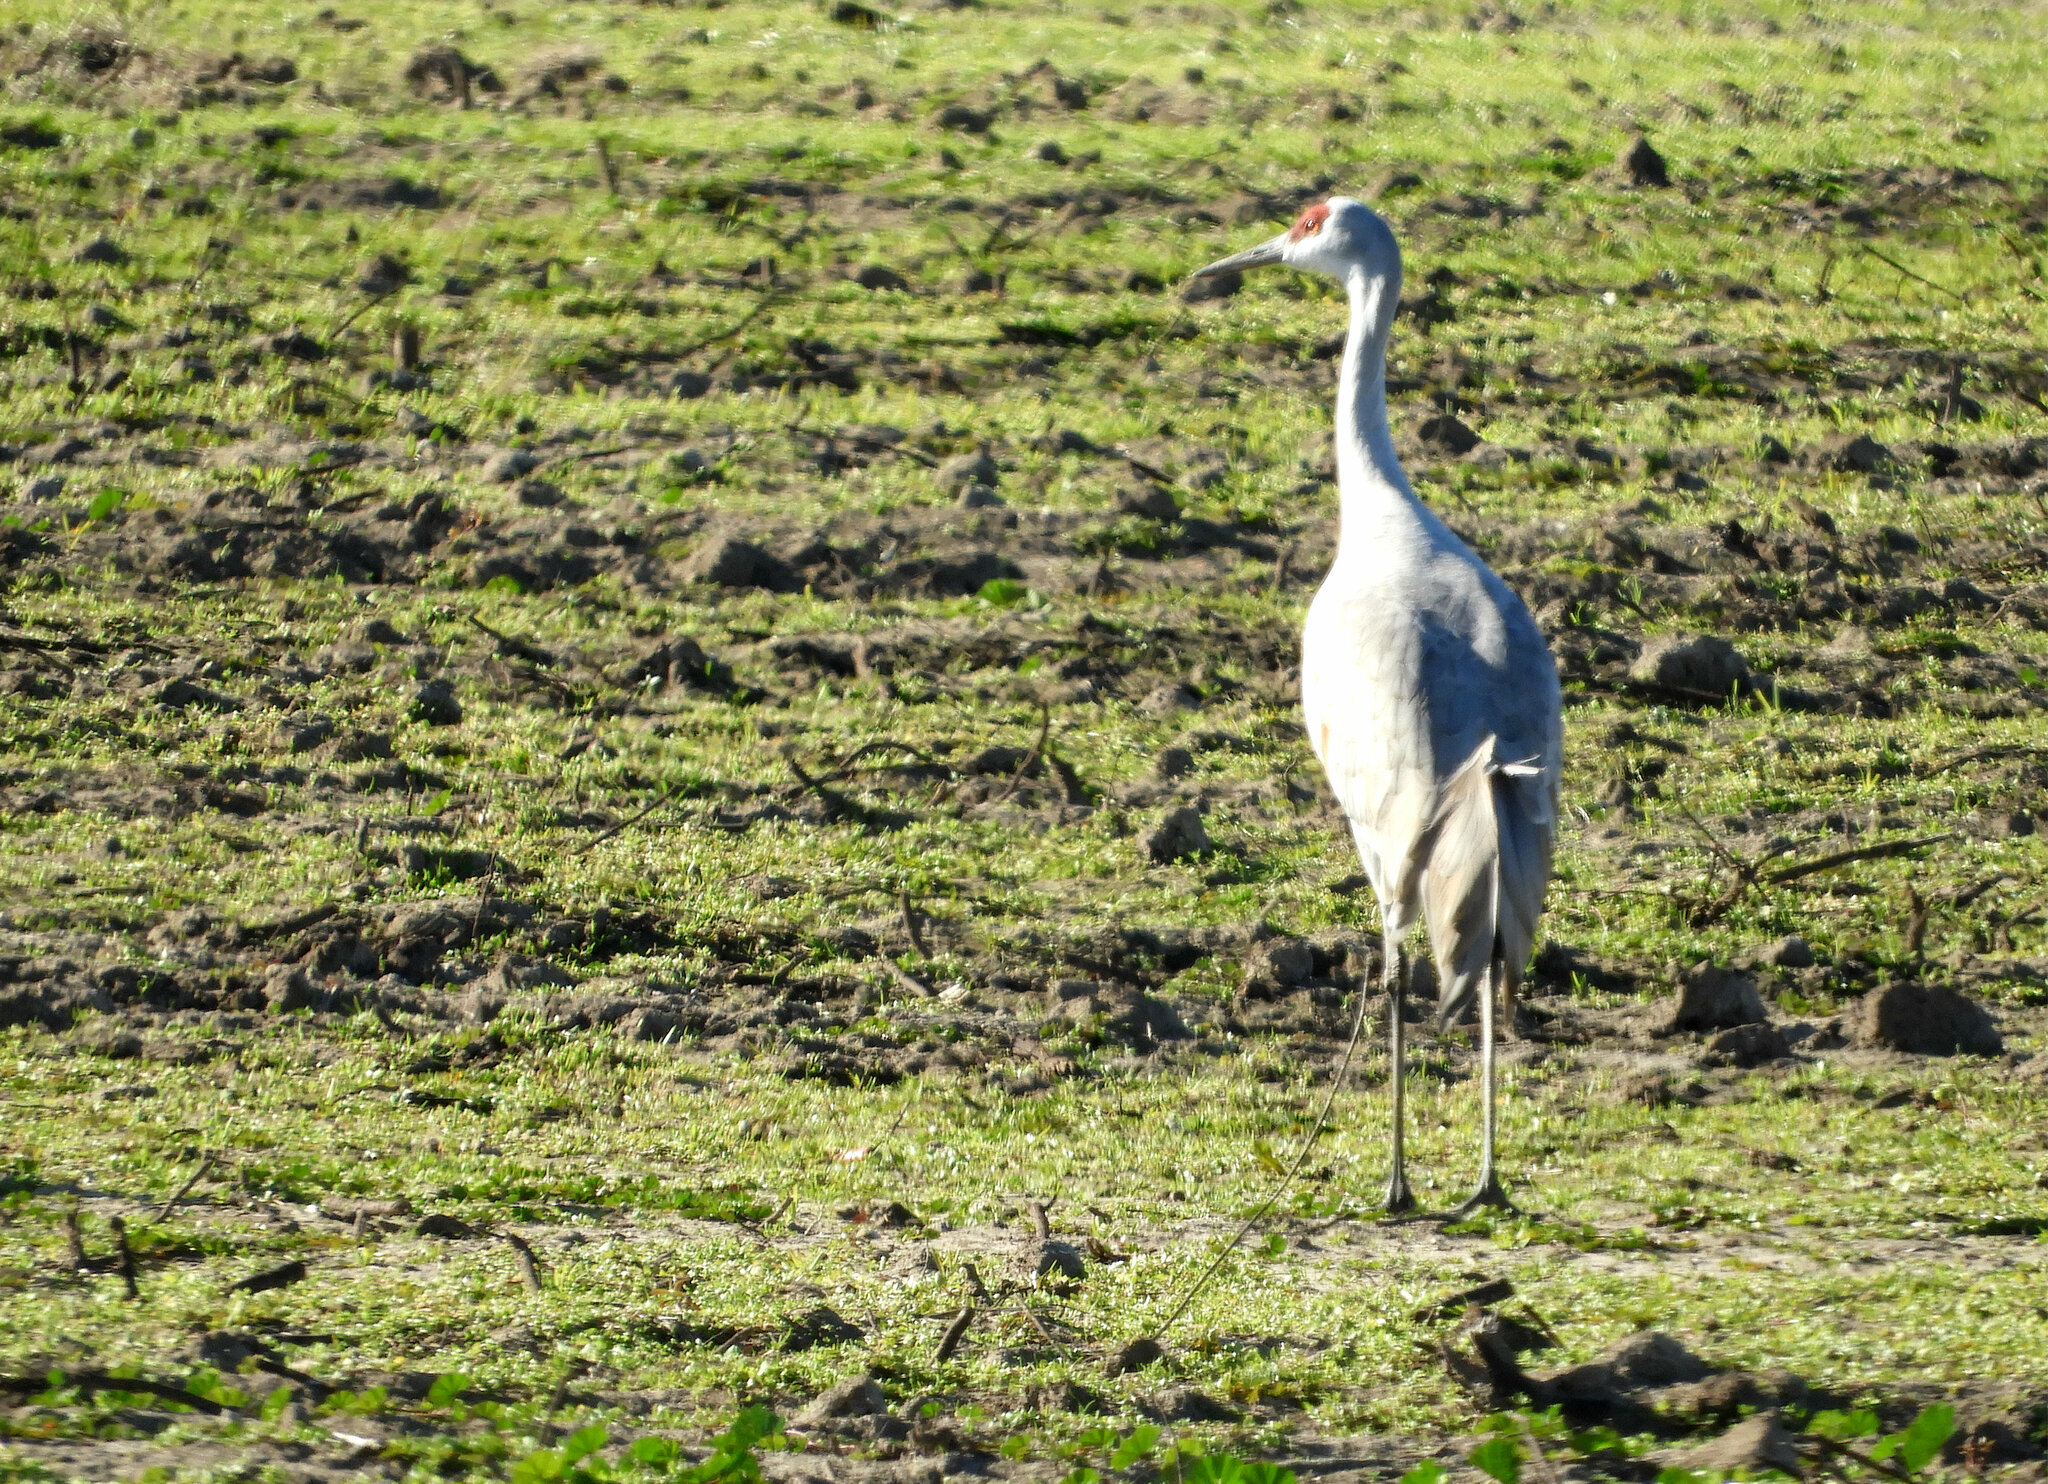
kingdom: Animalia
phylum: Chordata
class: Aves
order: Gruiformes
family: Gruidae
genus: Grus
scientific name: Grus canadensis
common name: Sandhill crane
